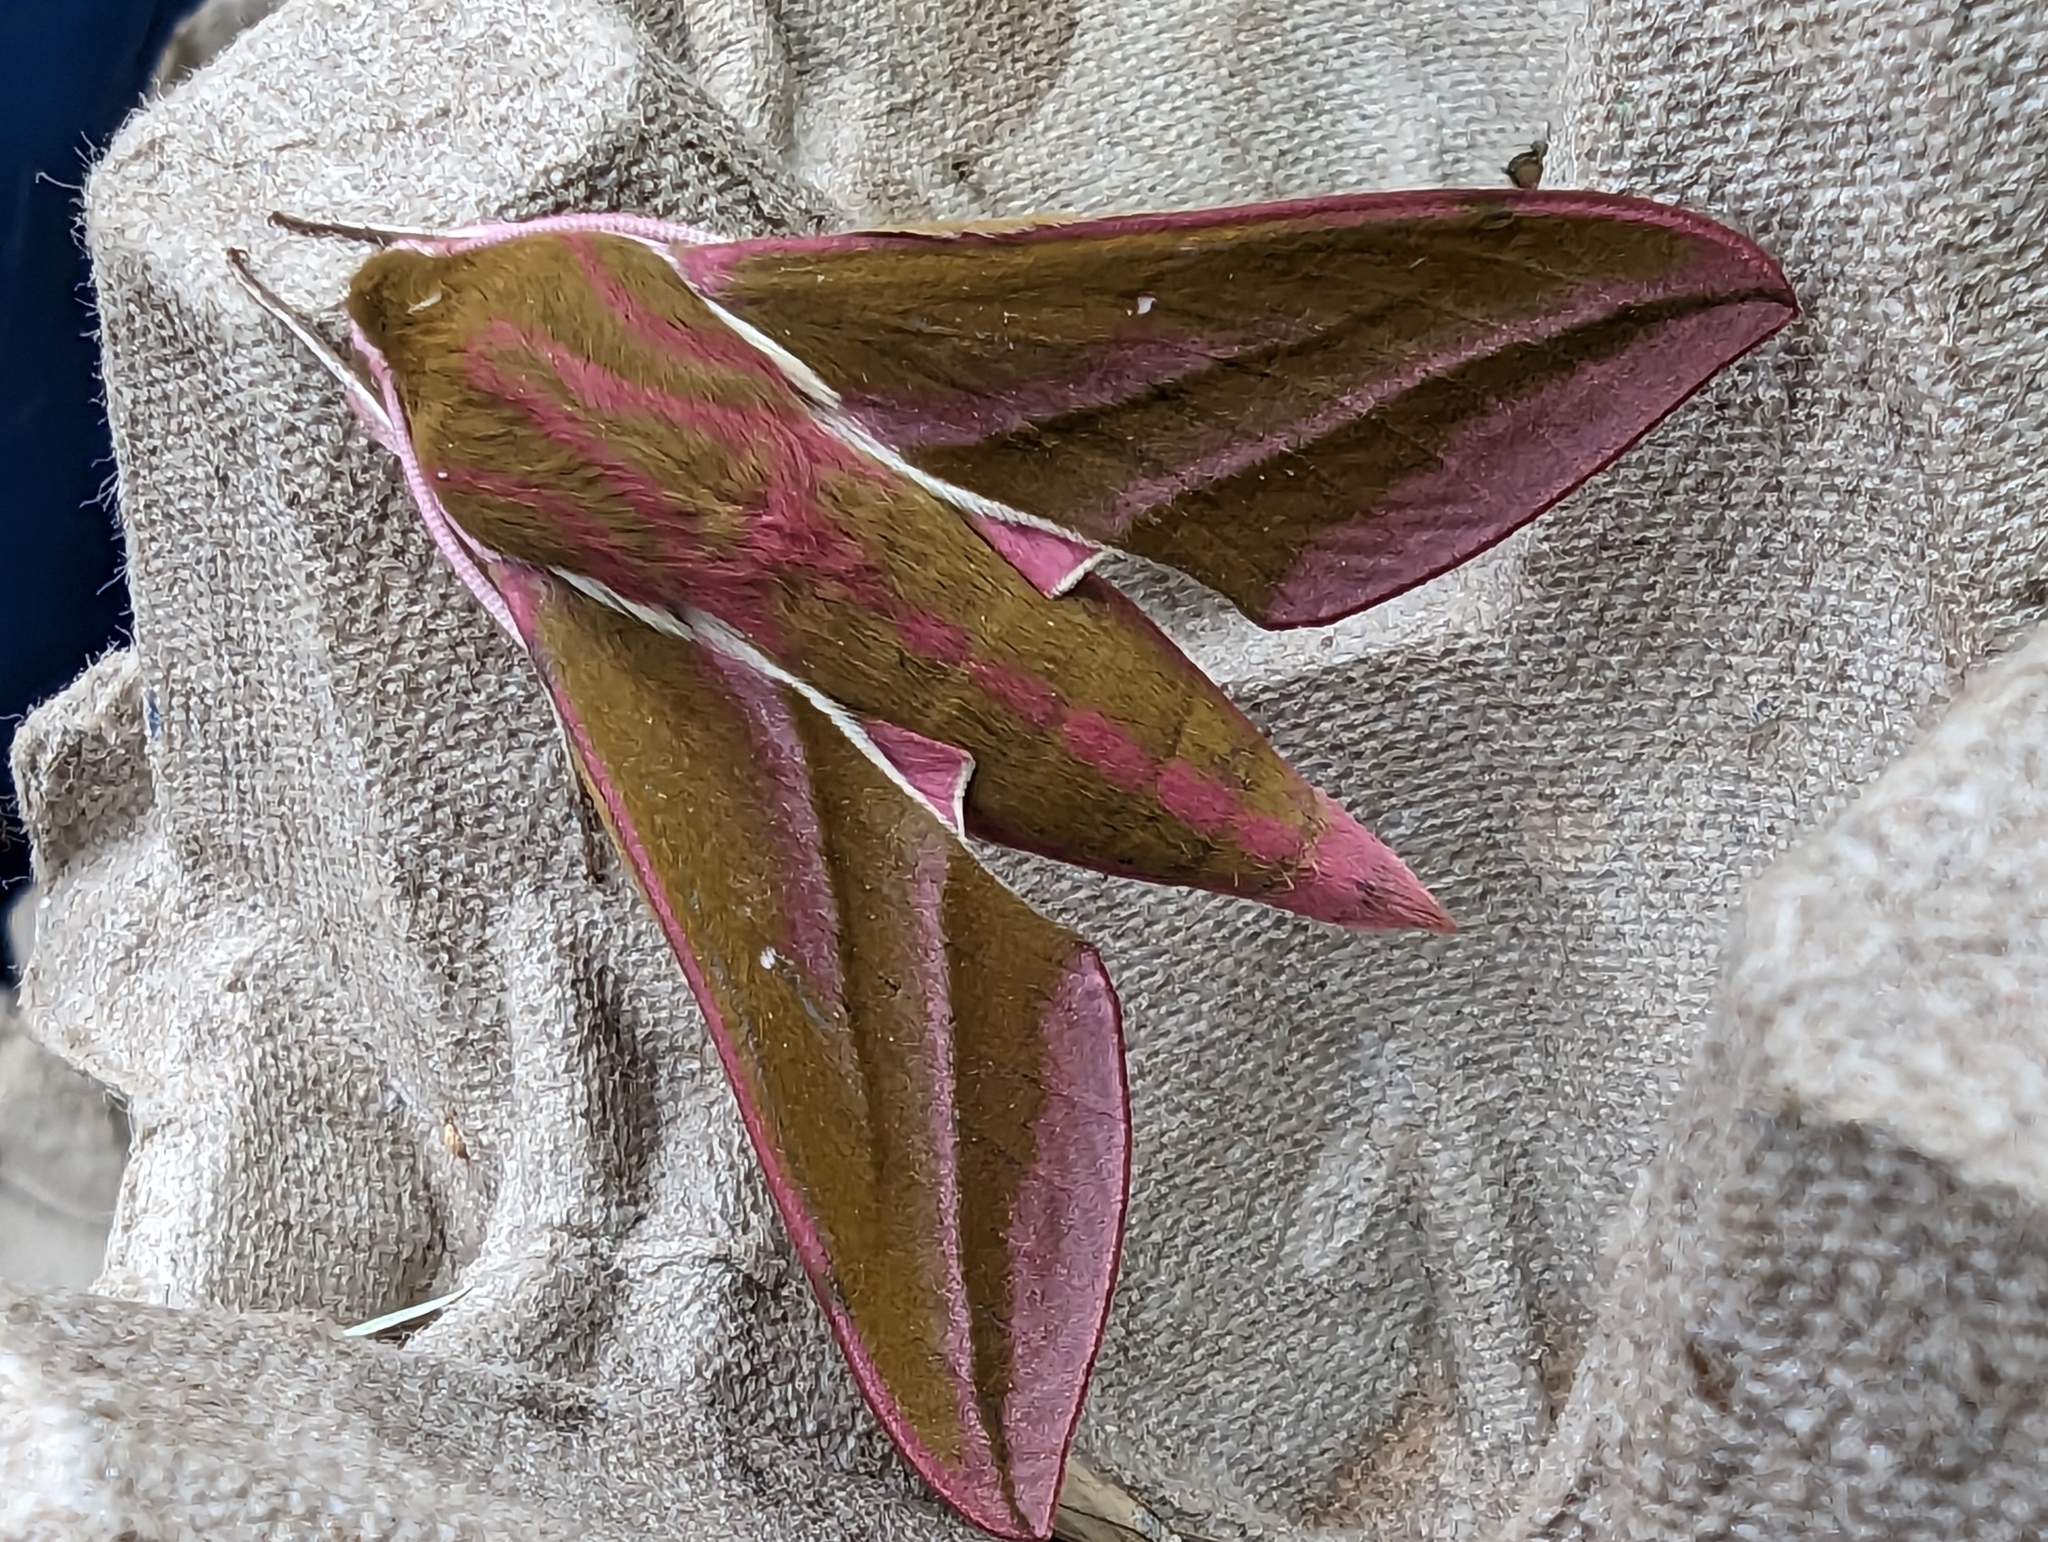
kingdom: Animalia
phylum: Arthropoda
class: Insecta
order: Lepidoptera
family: Sphingidae
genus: Deilephila
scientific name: Deilephila elpenor
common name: Elephant hawk-moth
